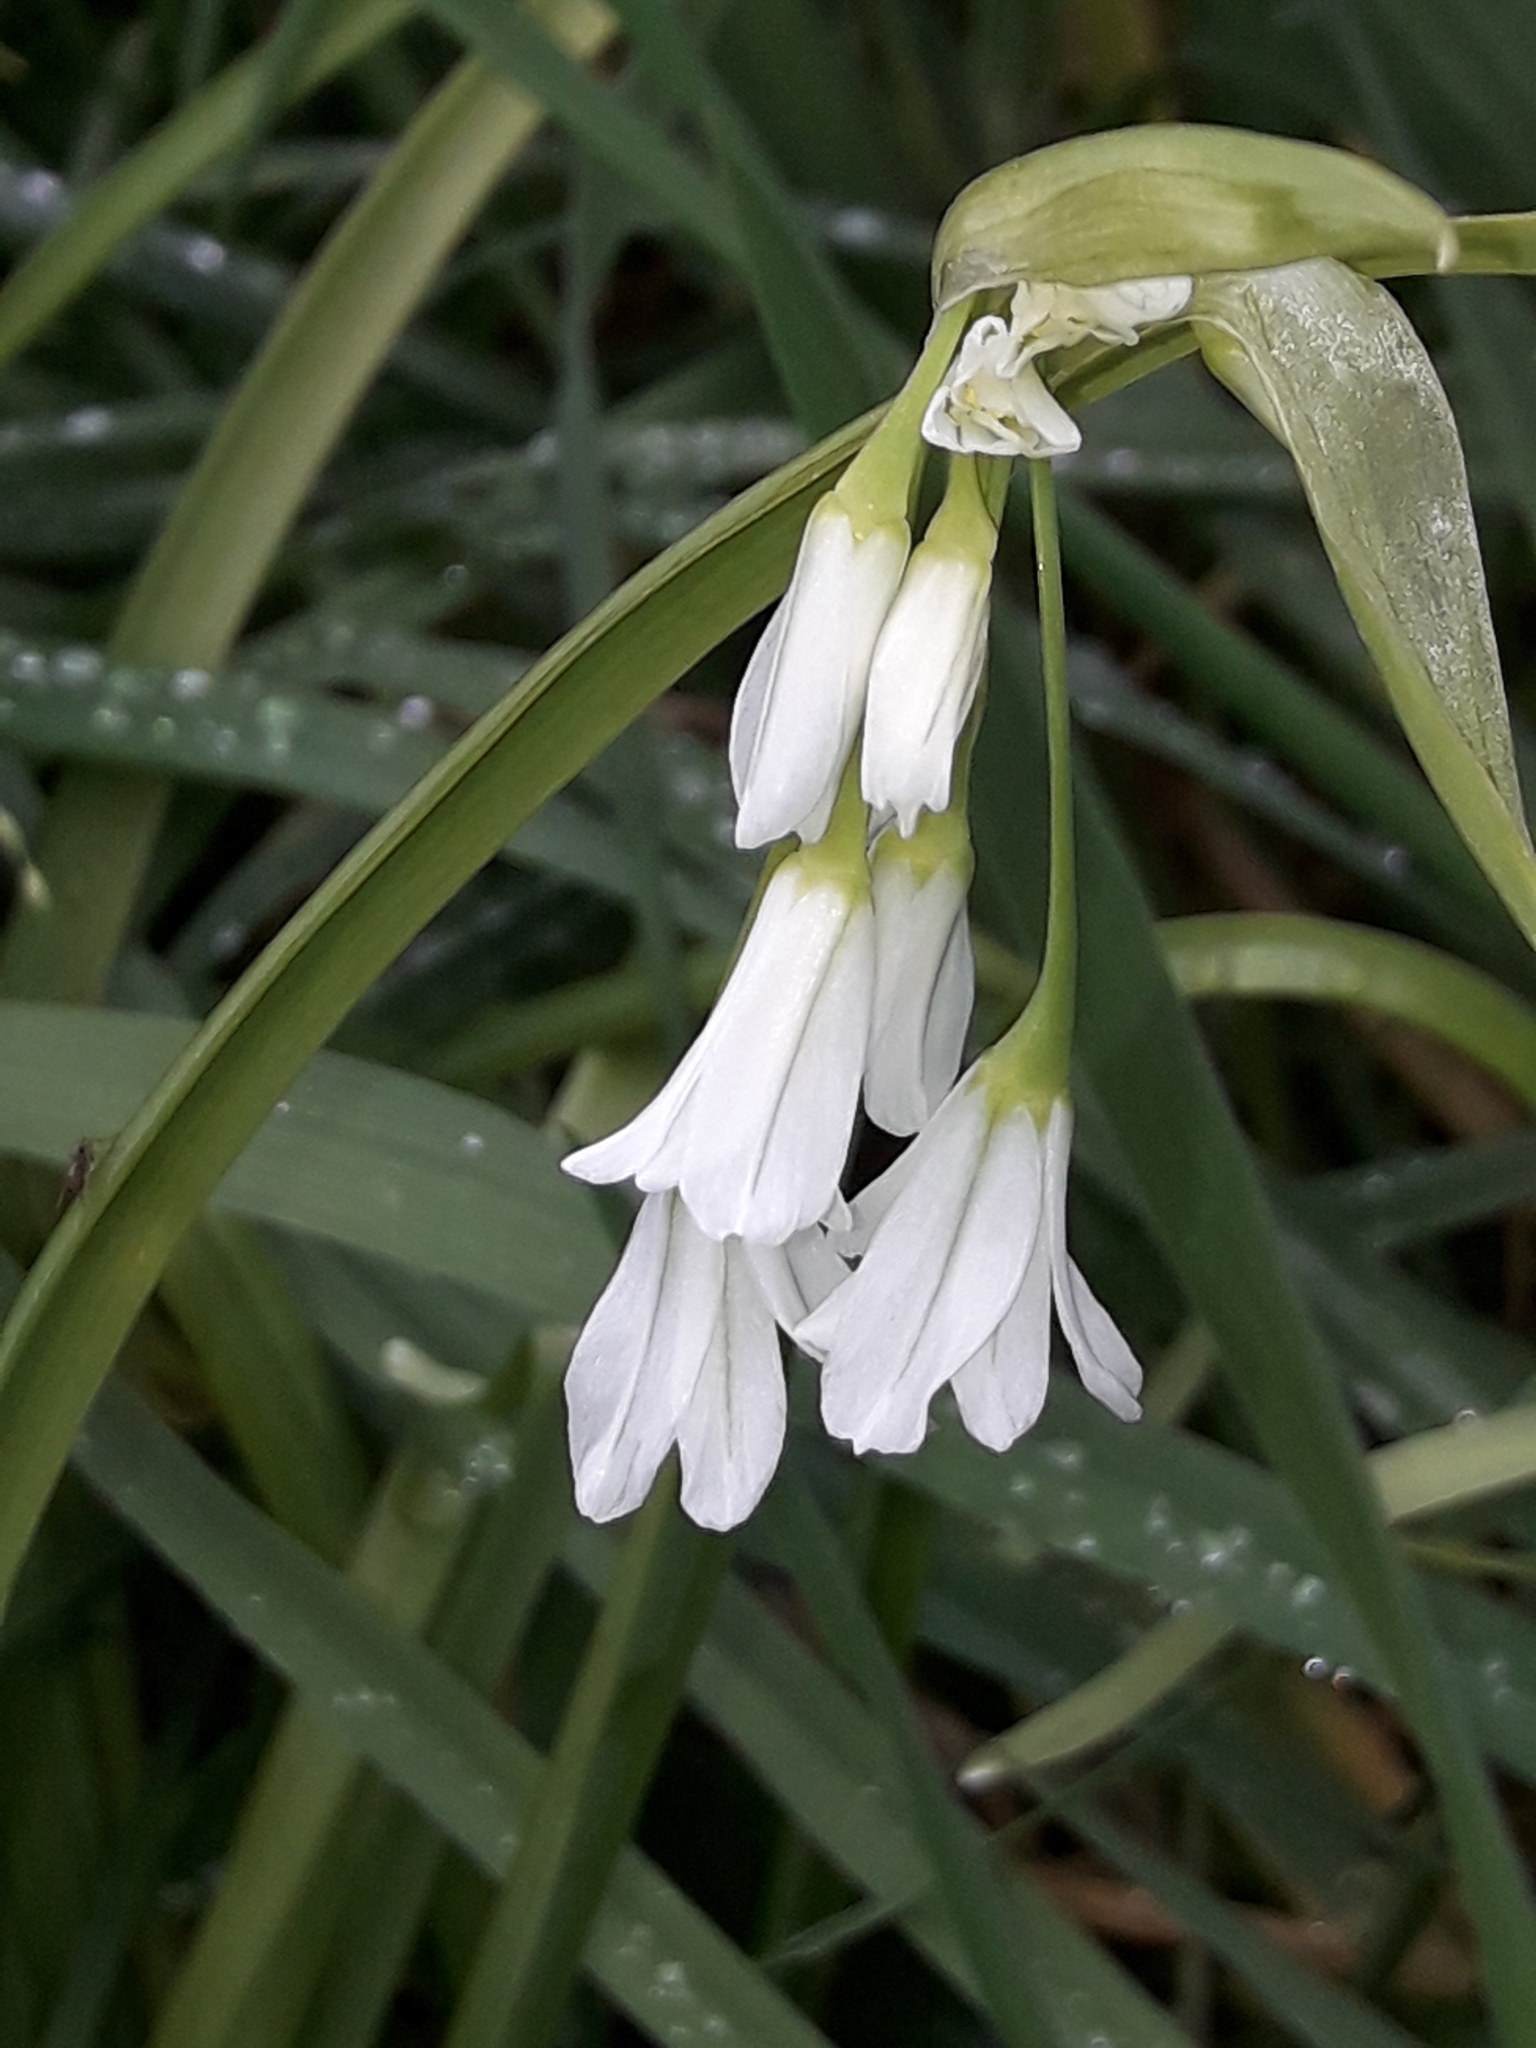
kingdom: Plantae
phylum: Tracheophyta
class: Liliopsida
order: Asparagales
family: Amaryllidaceae
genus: Allium
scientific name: Allium triquetrum
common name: Three-cornered garlic
